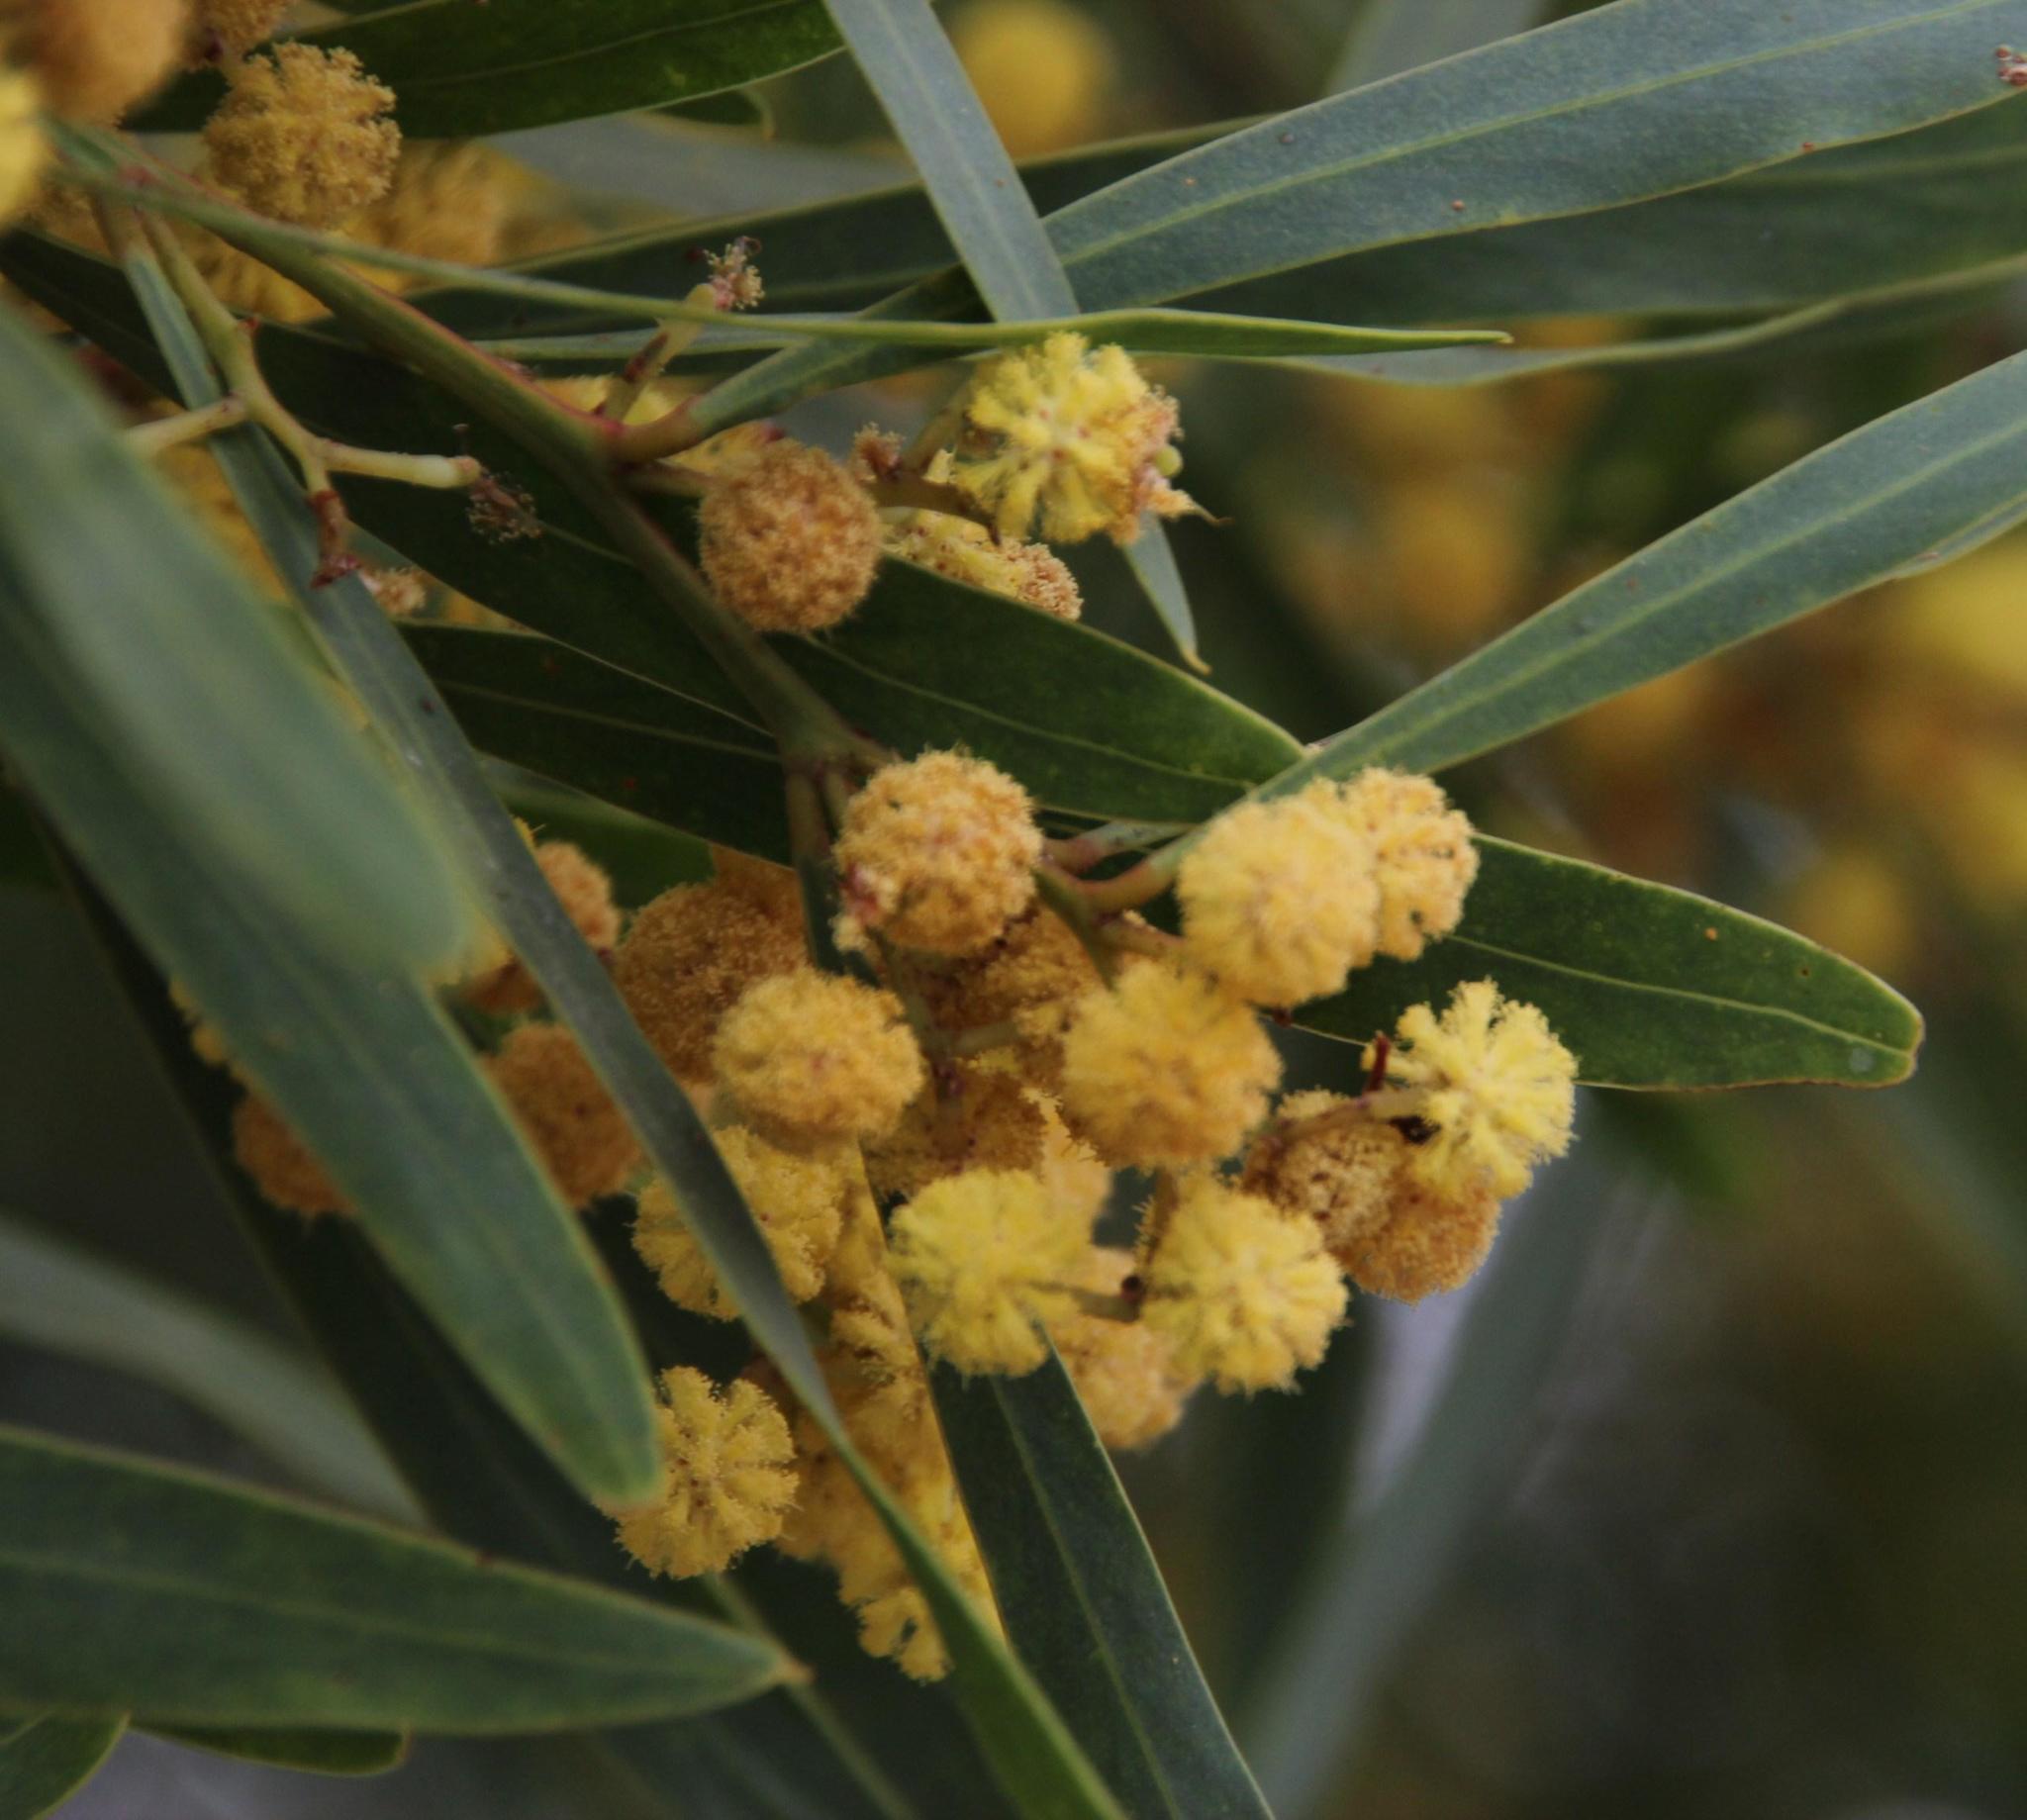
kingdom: Plantae
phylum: Tracheophyta
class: Magnoliopsida
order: Fabales
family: Fabaceae
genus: Acacia
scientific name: Acacia provincialis
